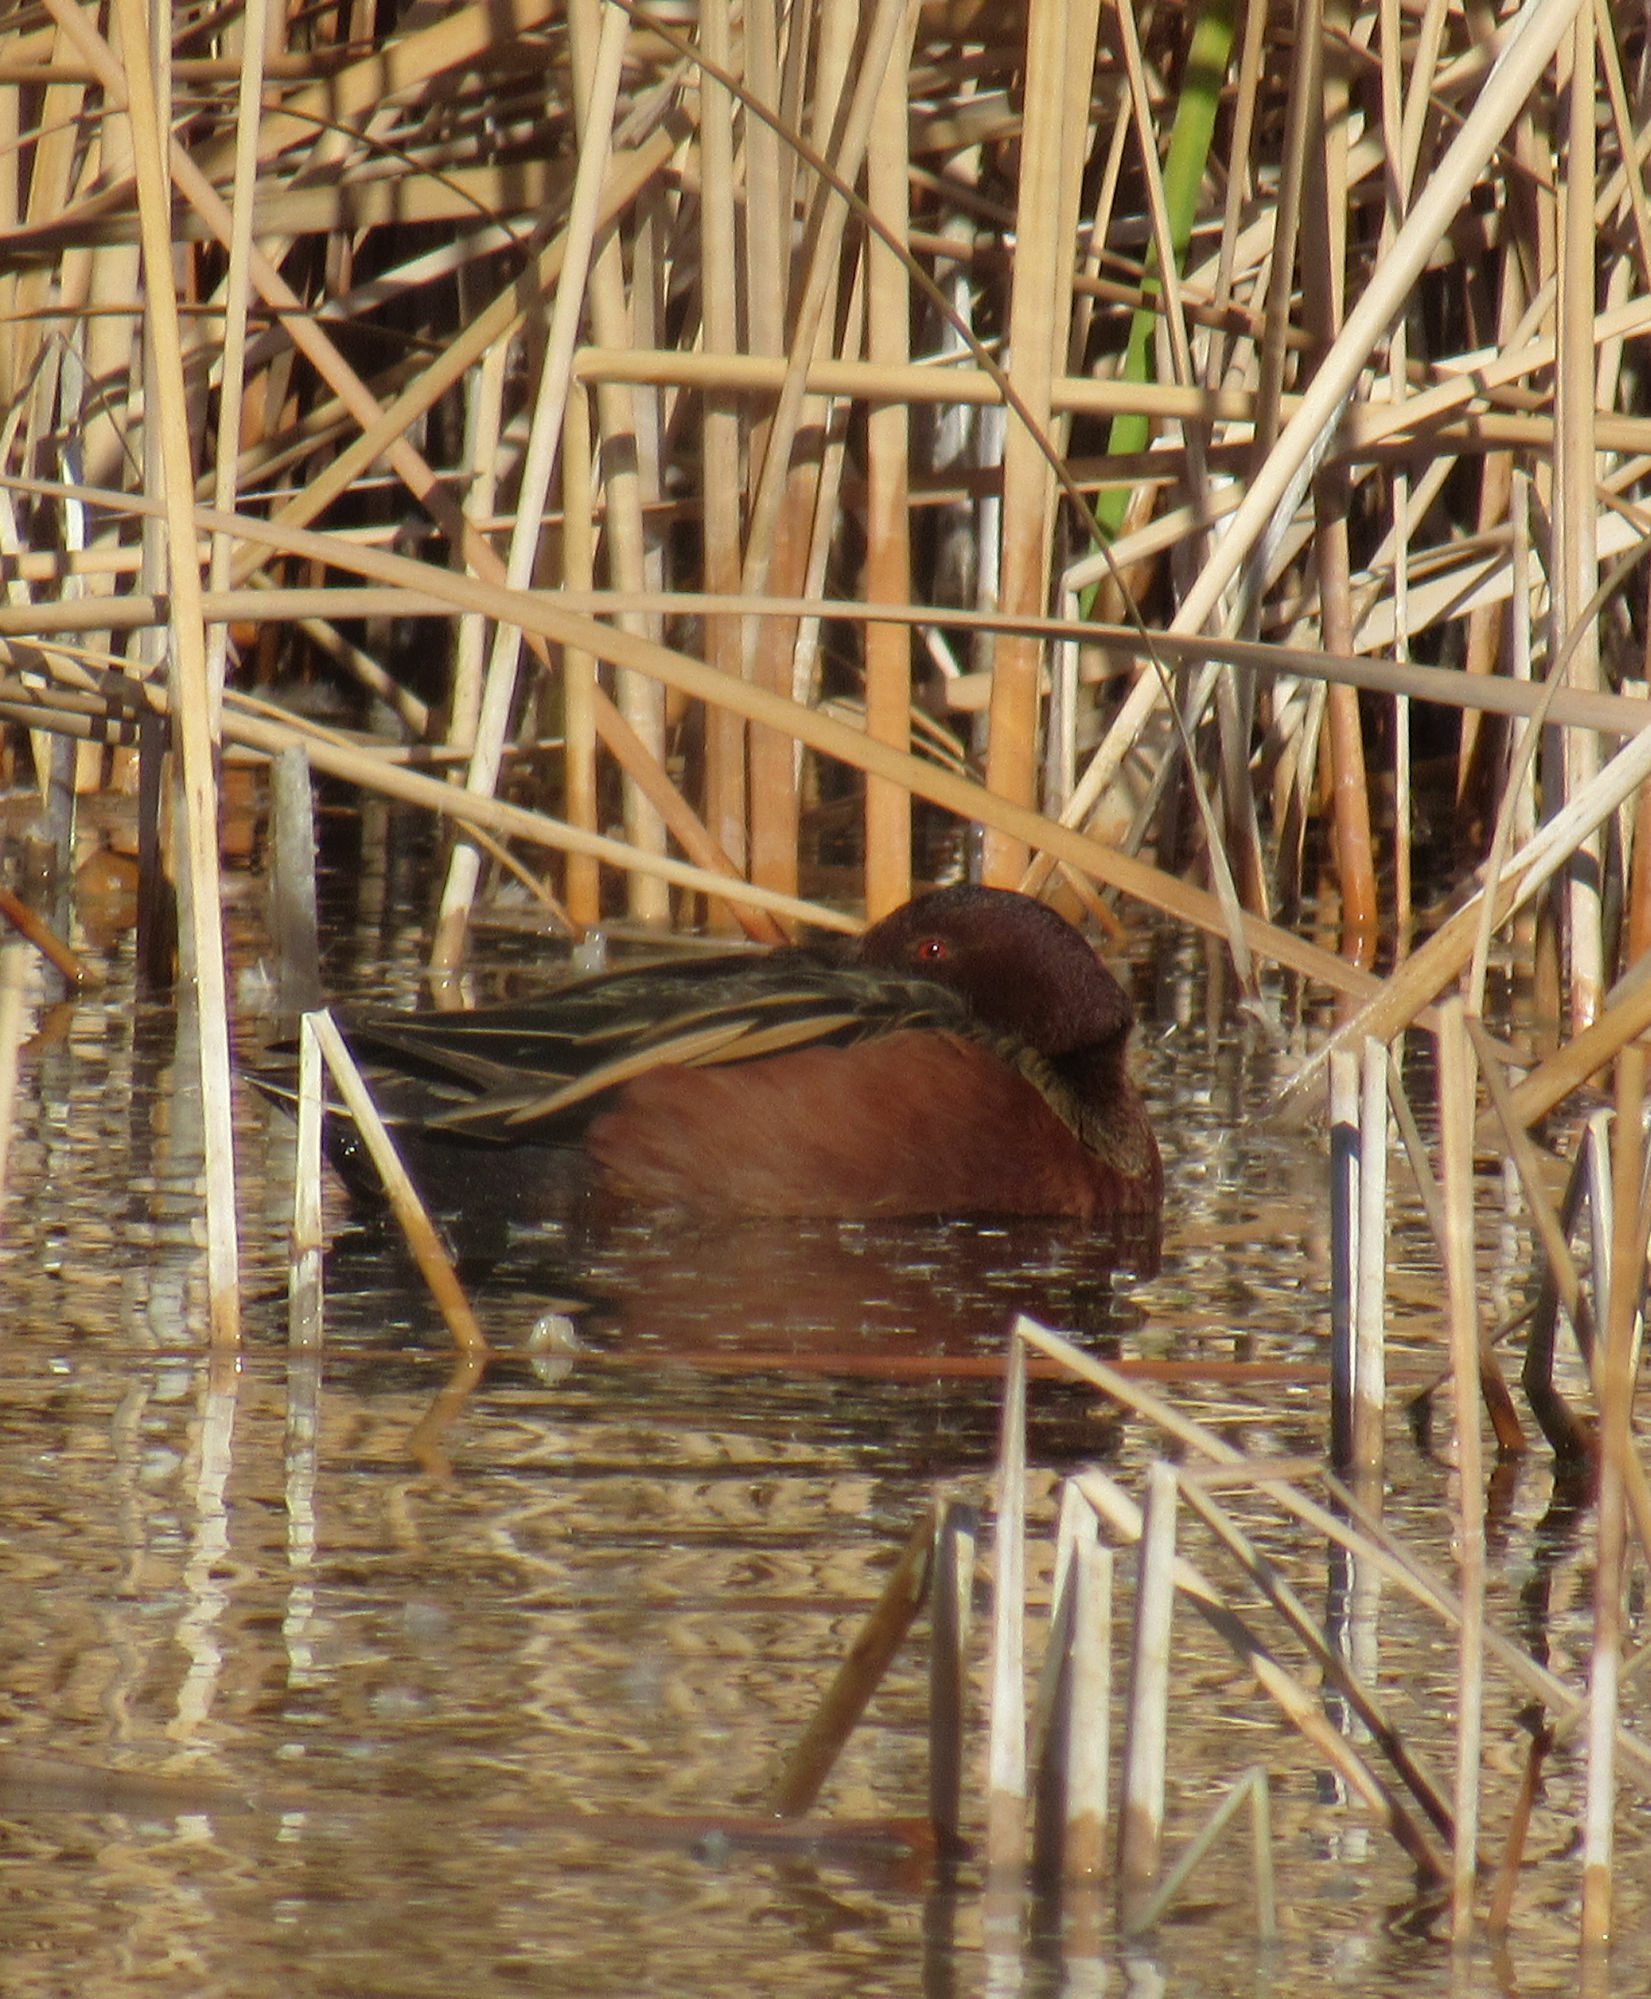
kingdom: Animalia
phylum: Chordata
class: Aves
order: Anseriformes
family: Anatidae
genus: Spatula
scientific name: Spatula cyanoptera
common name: Cinnamon teal
